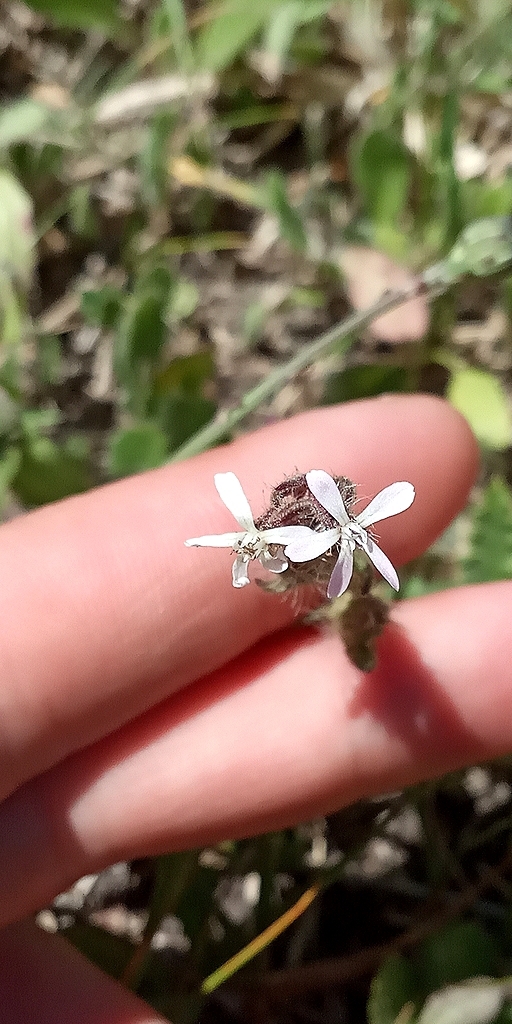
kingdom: Plantae
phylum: Tracheophyta
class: Magnoliopsida
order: Caryophyllales
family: Caryophyllaceae
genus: Silene
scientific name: Silene gallica
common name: Small-flowered catchfly
